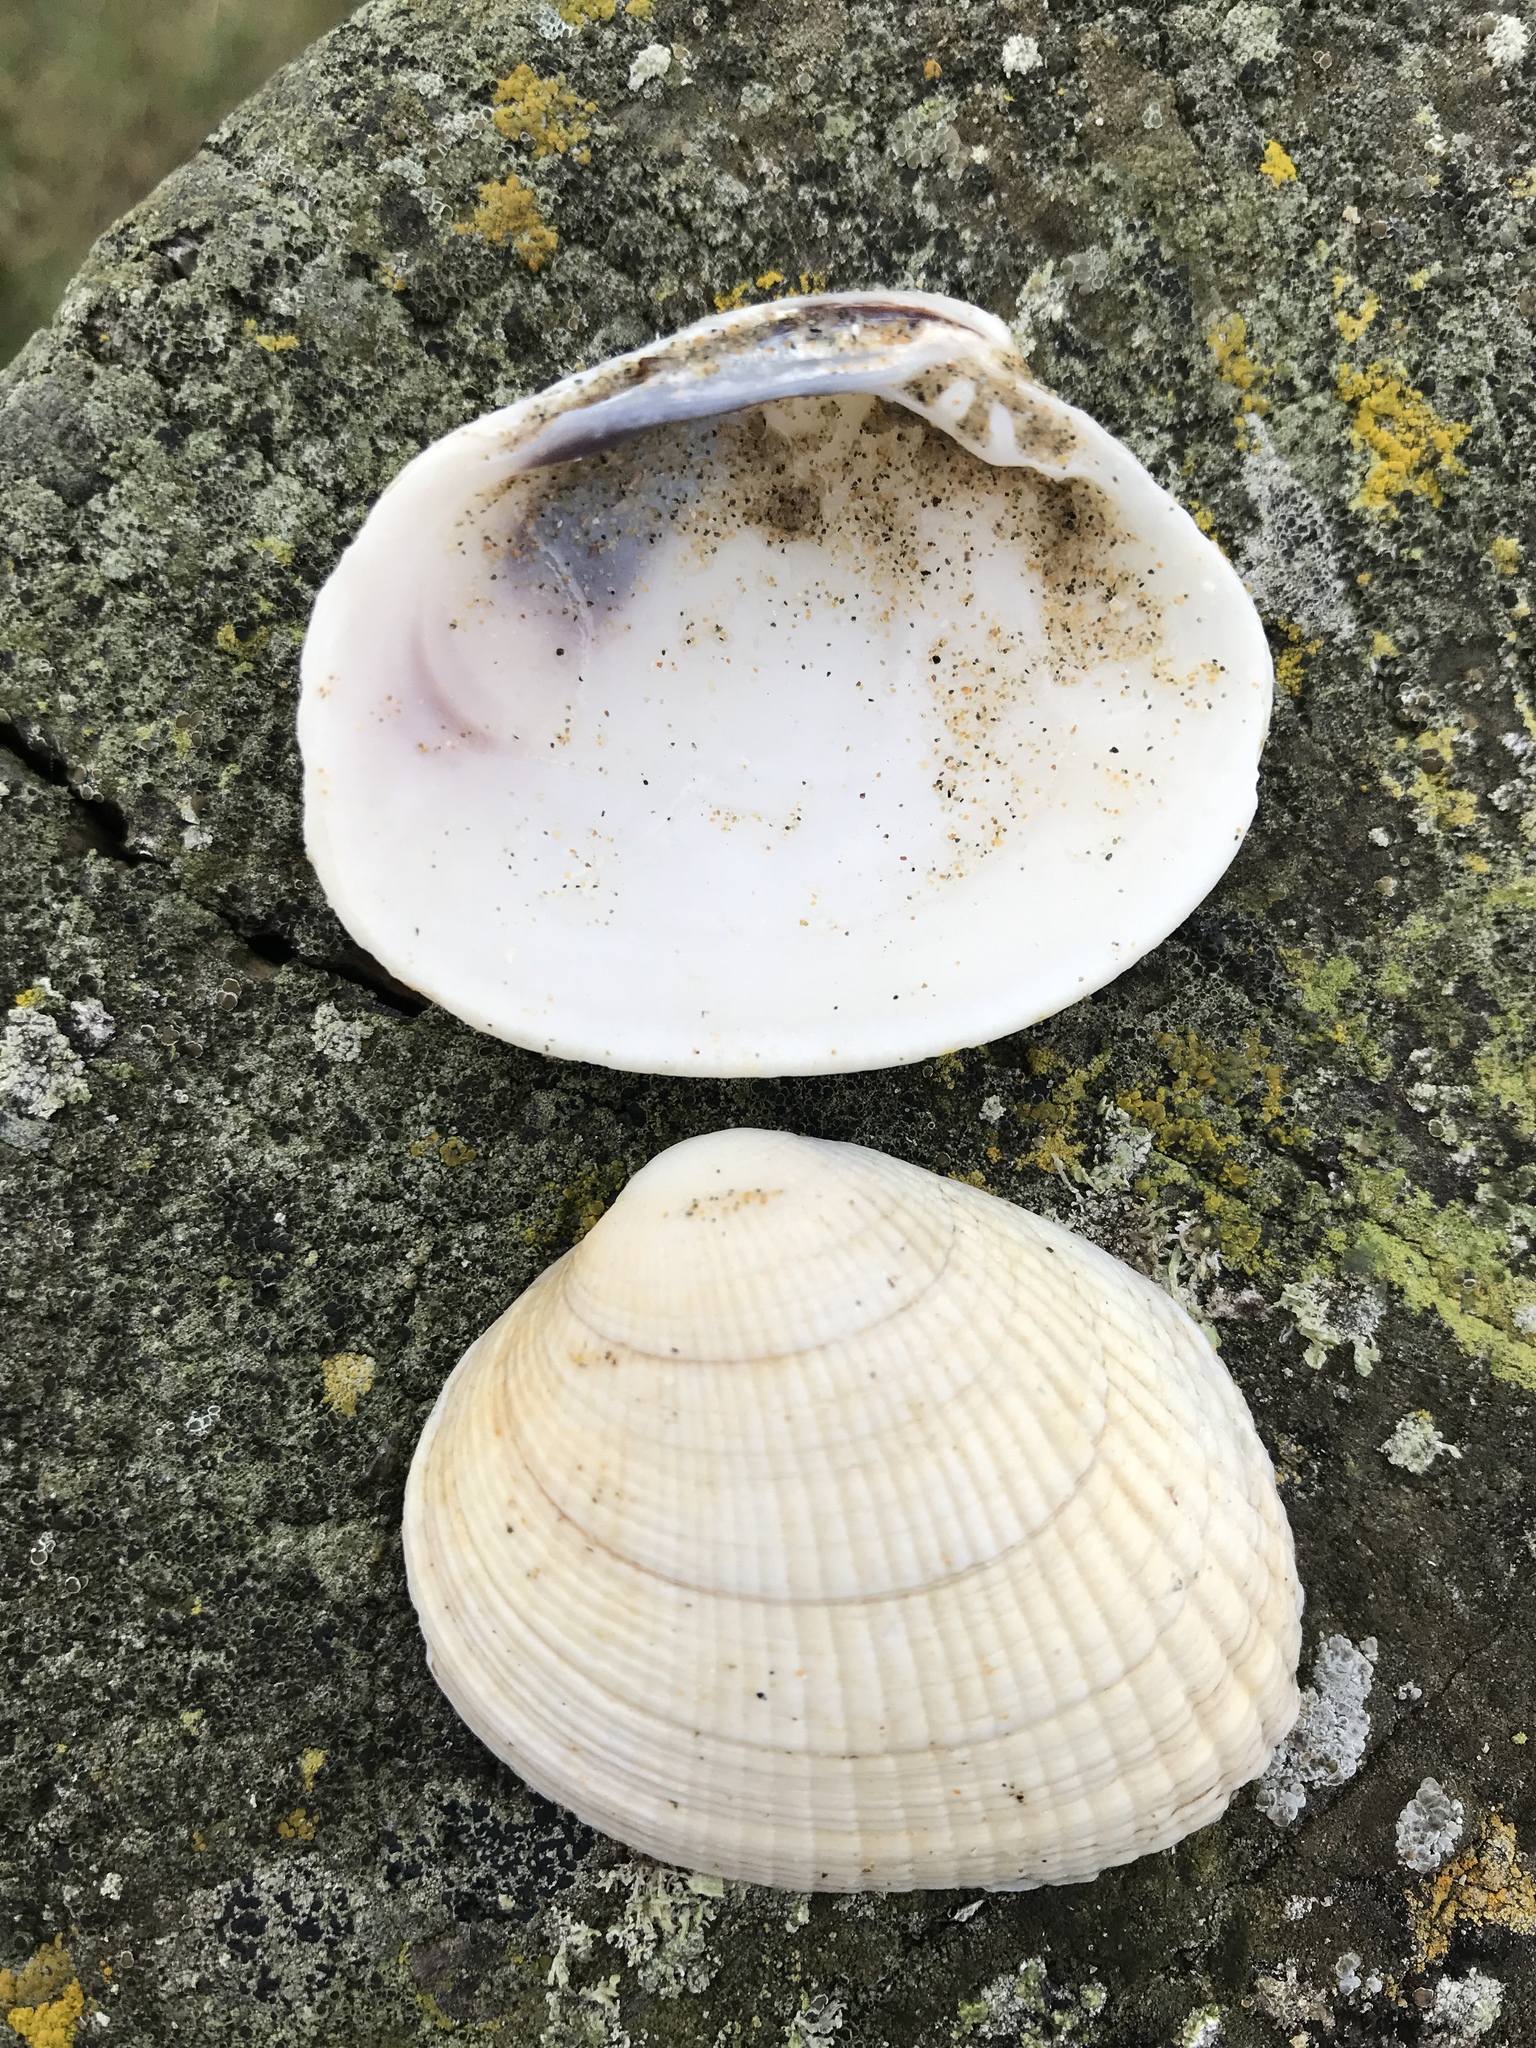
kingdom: Animalia
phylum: Mollusca
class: Bivalvia
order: Venerida
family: Veneridae
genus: Leukoma
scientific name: Leukoma crassicosta
